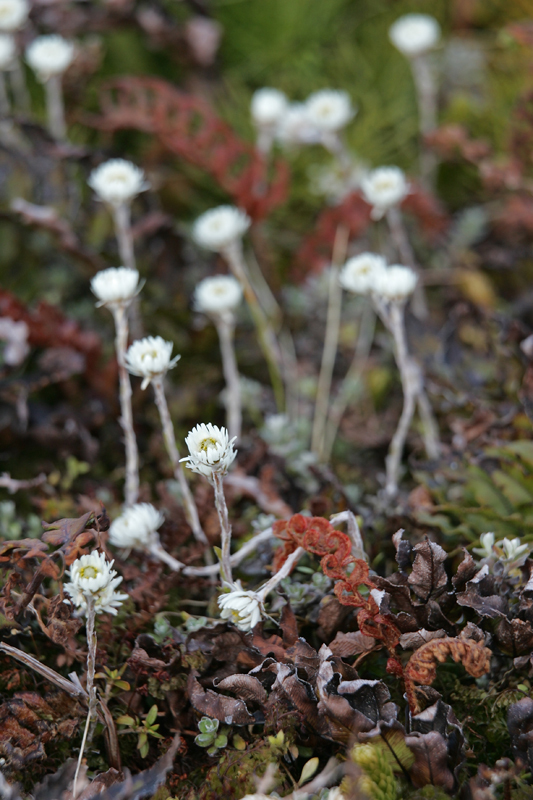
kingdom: Plantae
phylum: Tracheophyta
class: Magnoliopsida
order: Asterales
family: Asteraceae
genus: Anaphalioides
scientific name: Anaphalioides bellidioides
